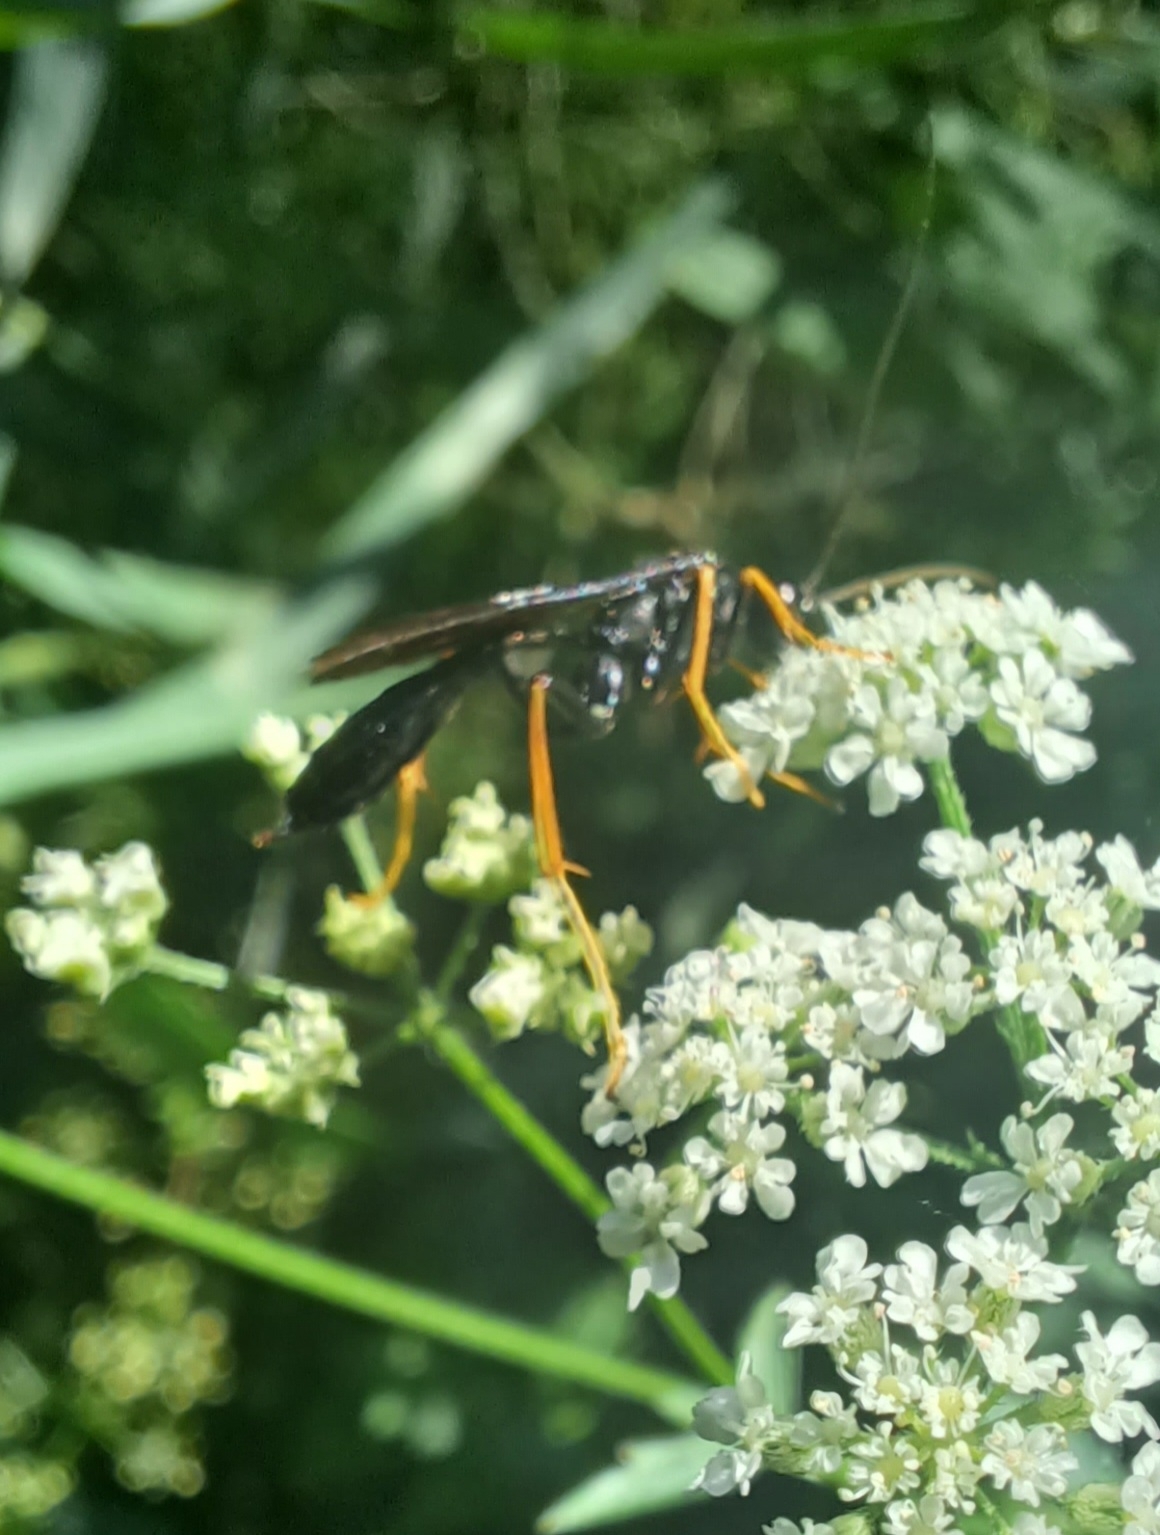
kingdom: Animalia
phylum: Arthropoda
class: Insecta
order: Hymenoptera
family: Ichneumonidae
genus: Exetastes
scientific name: Exetastes suaveolens
